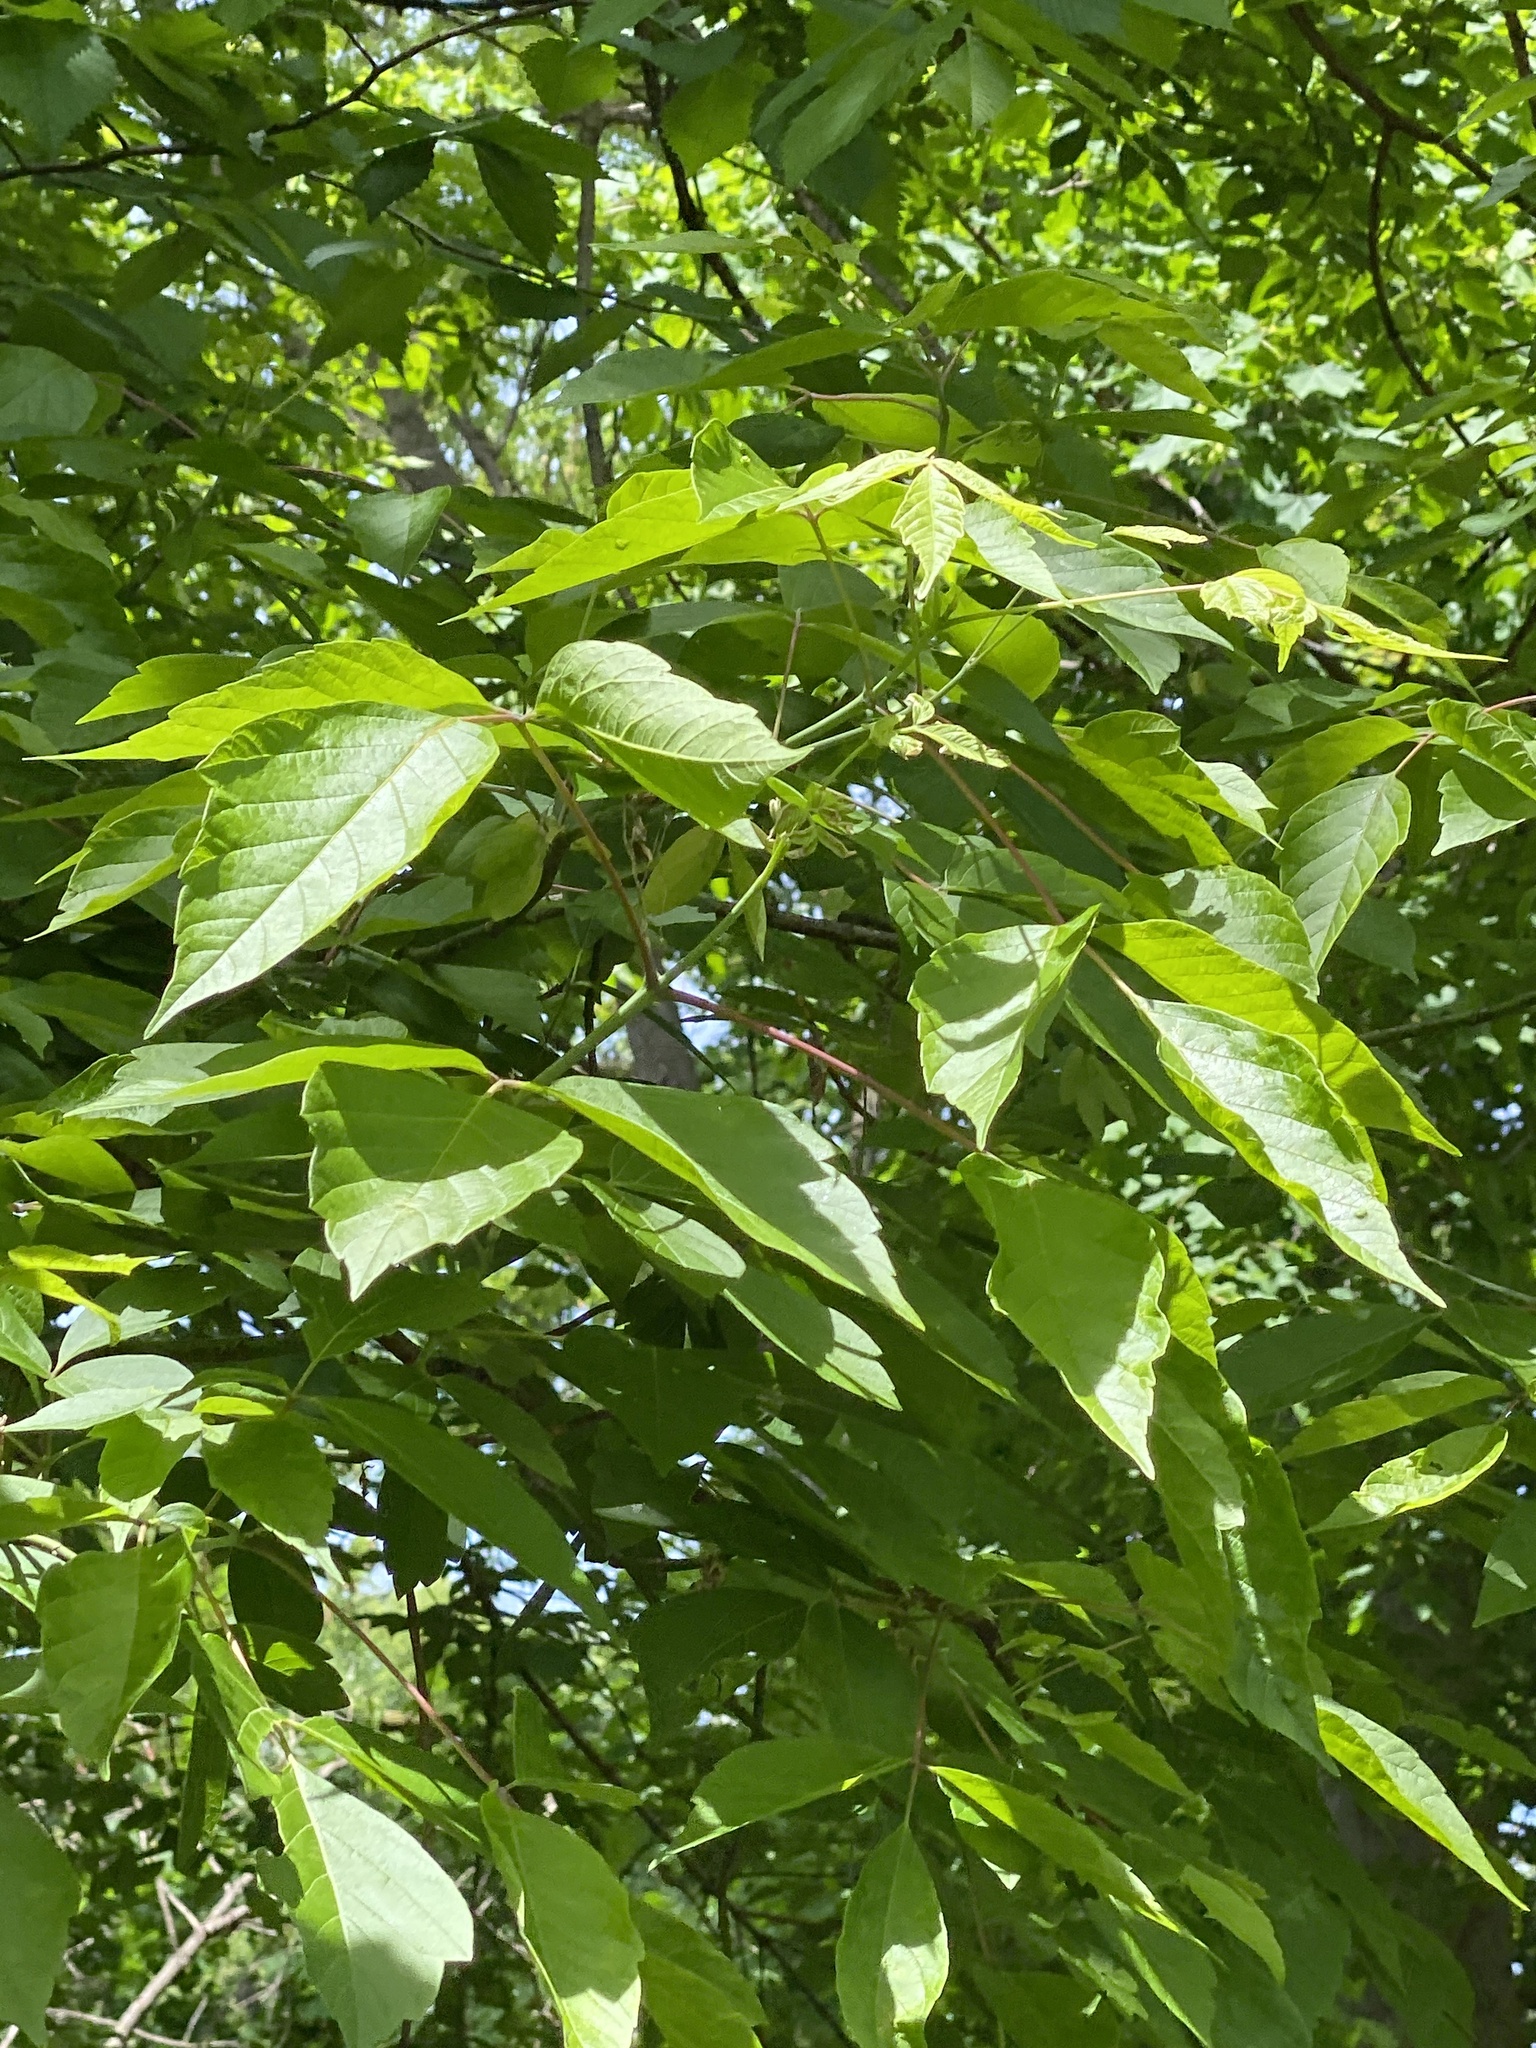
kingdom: Plantae
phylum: Tracheophyta
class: Magnoliopsida
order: Sapindales
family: Sapindaceae
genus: Acer
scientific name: Acer negundo
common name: Ashleaf maple
